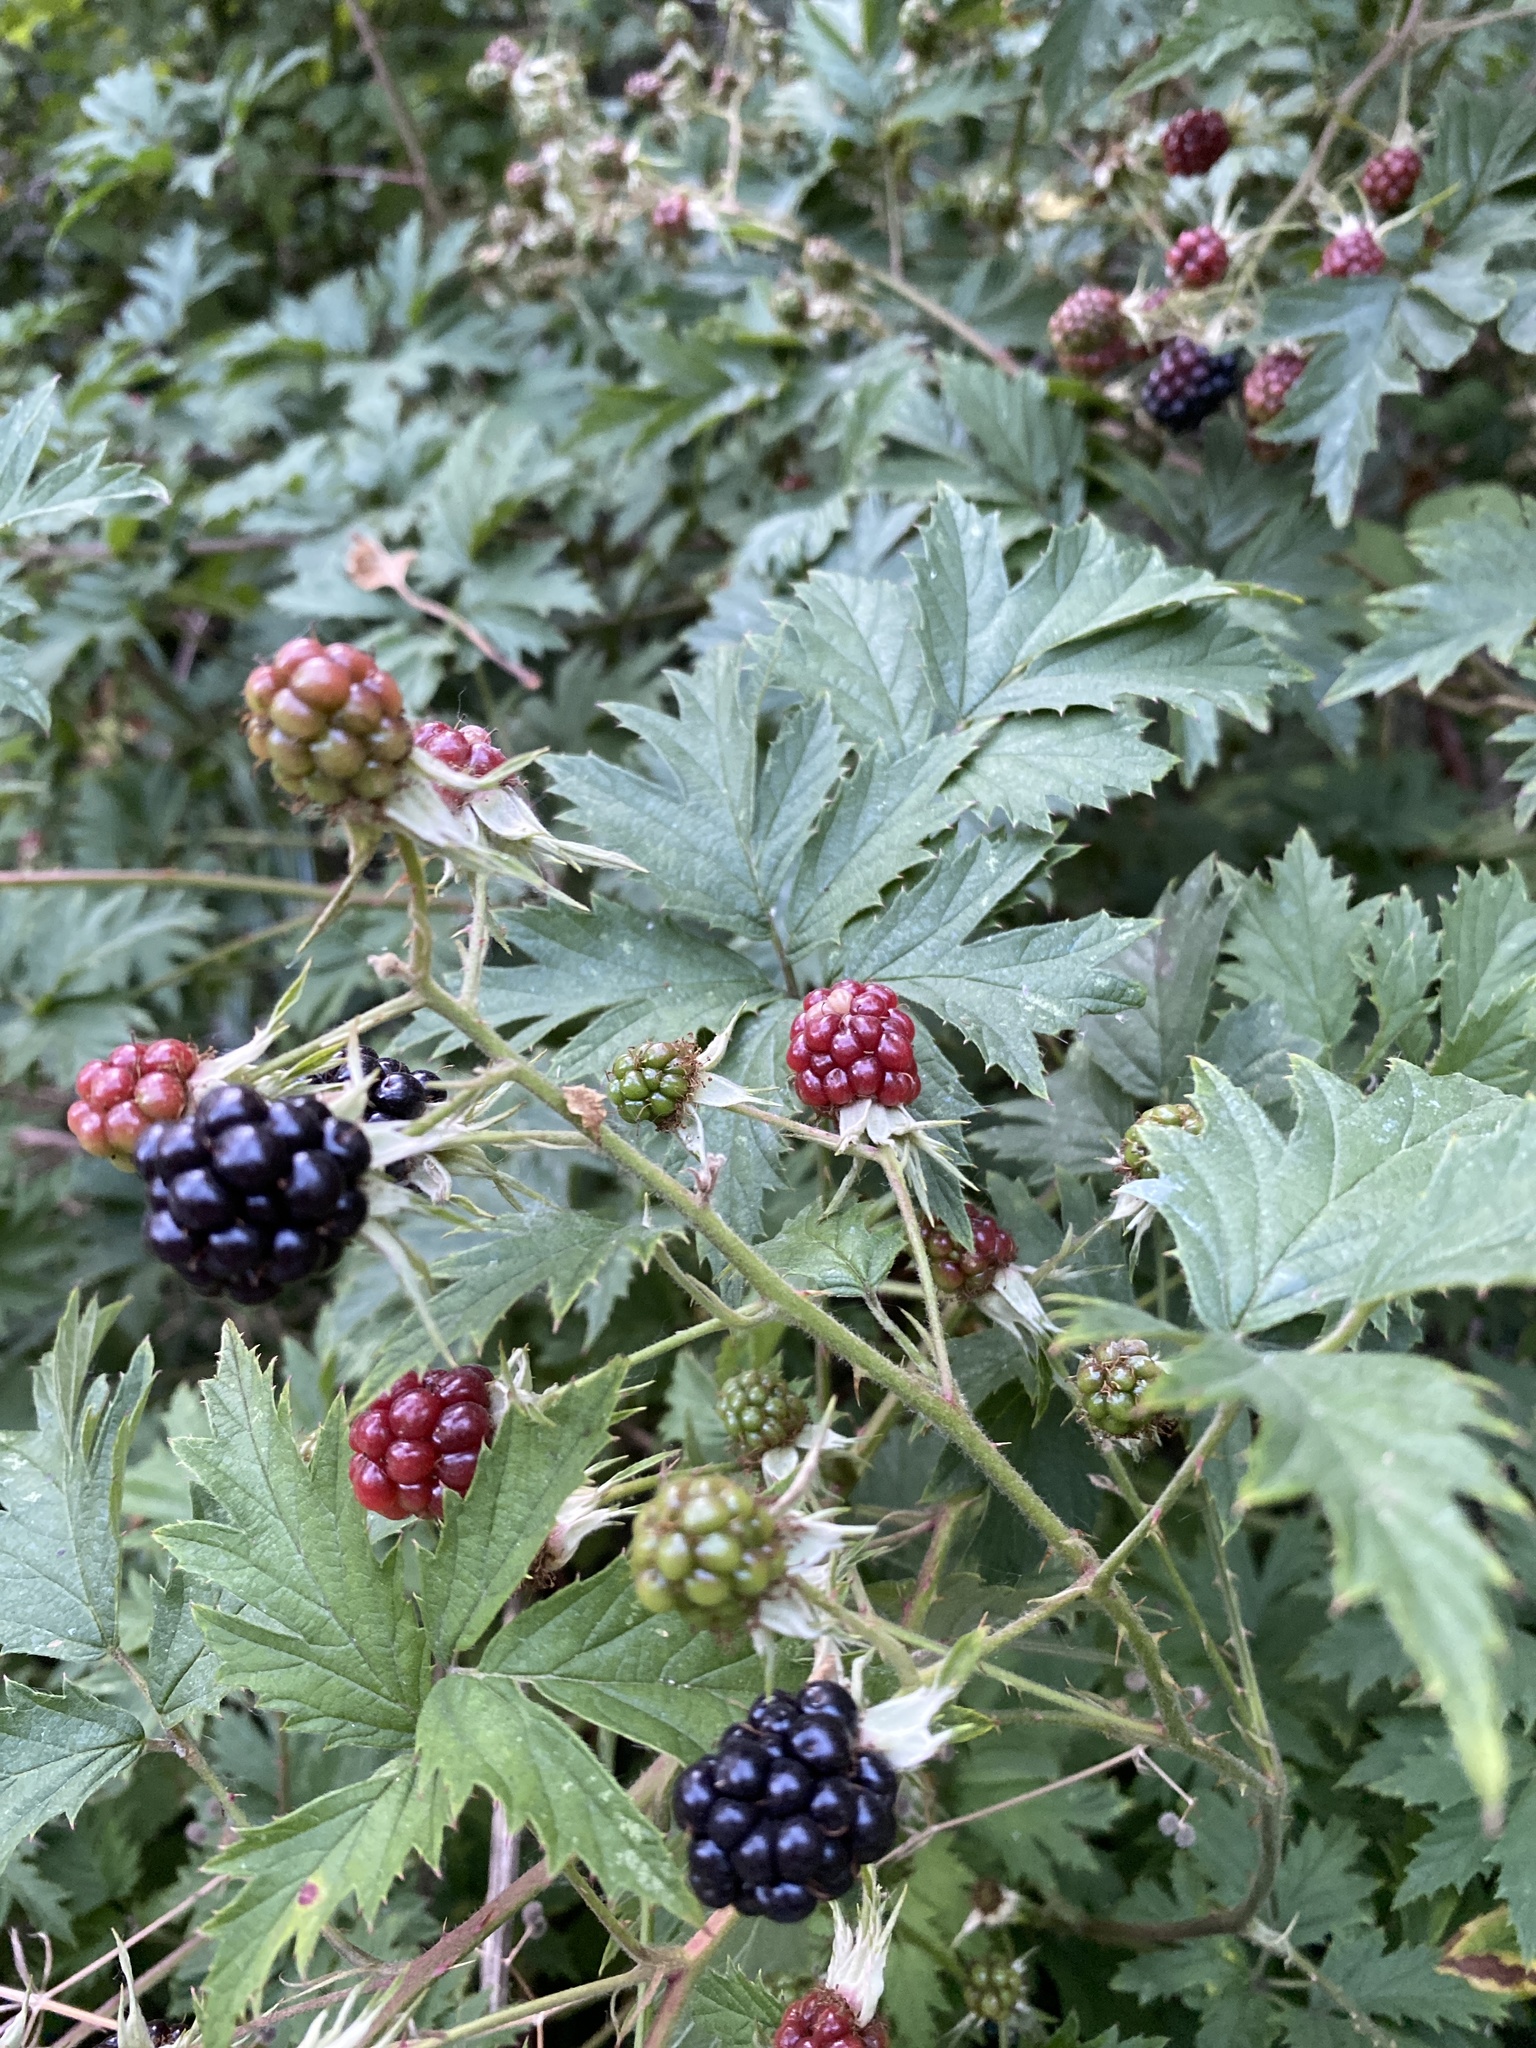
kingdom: Plantae
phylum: Tracheophyta
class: Magnoliopsida
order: Rosales
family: Rosaceae
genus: Rubus
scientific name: Rubus laciniatus
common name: Evergreen blackberry
